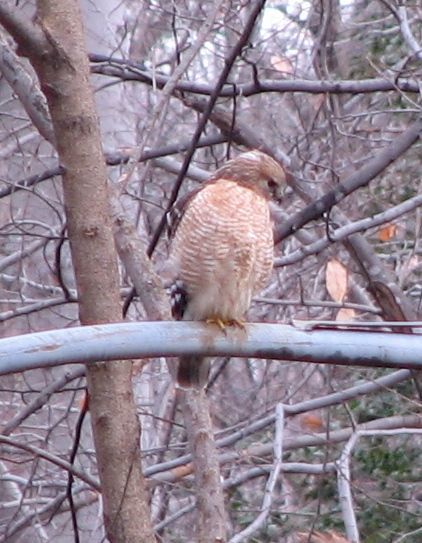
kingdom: Animalia
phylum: Chordata
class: Aves
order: Accipitriformes
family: Accipitridae
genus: Buteo
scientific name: Buteo lineatus
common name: Red-shouldered hawk
